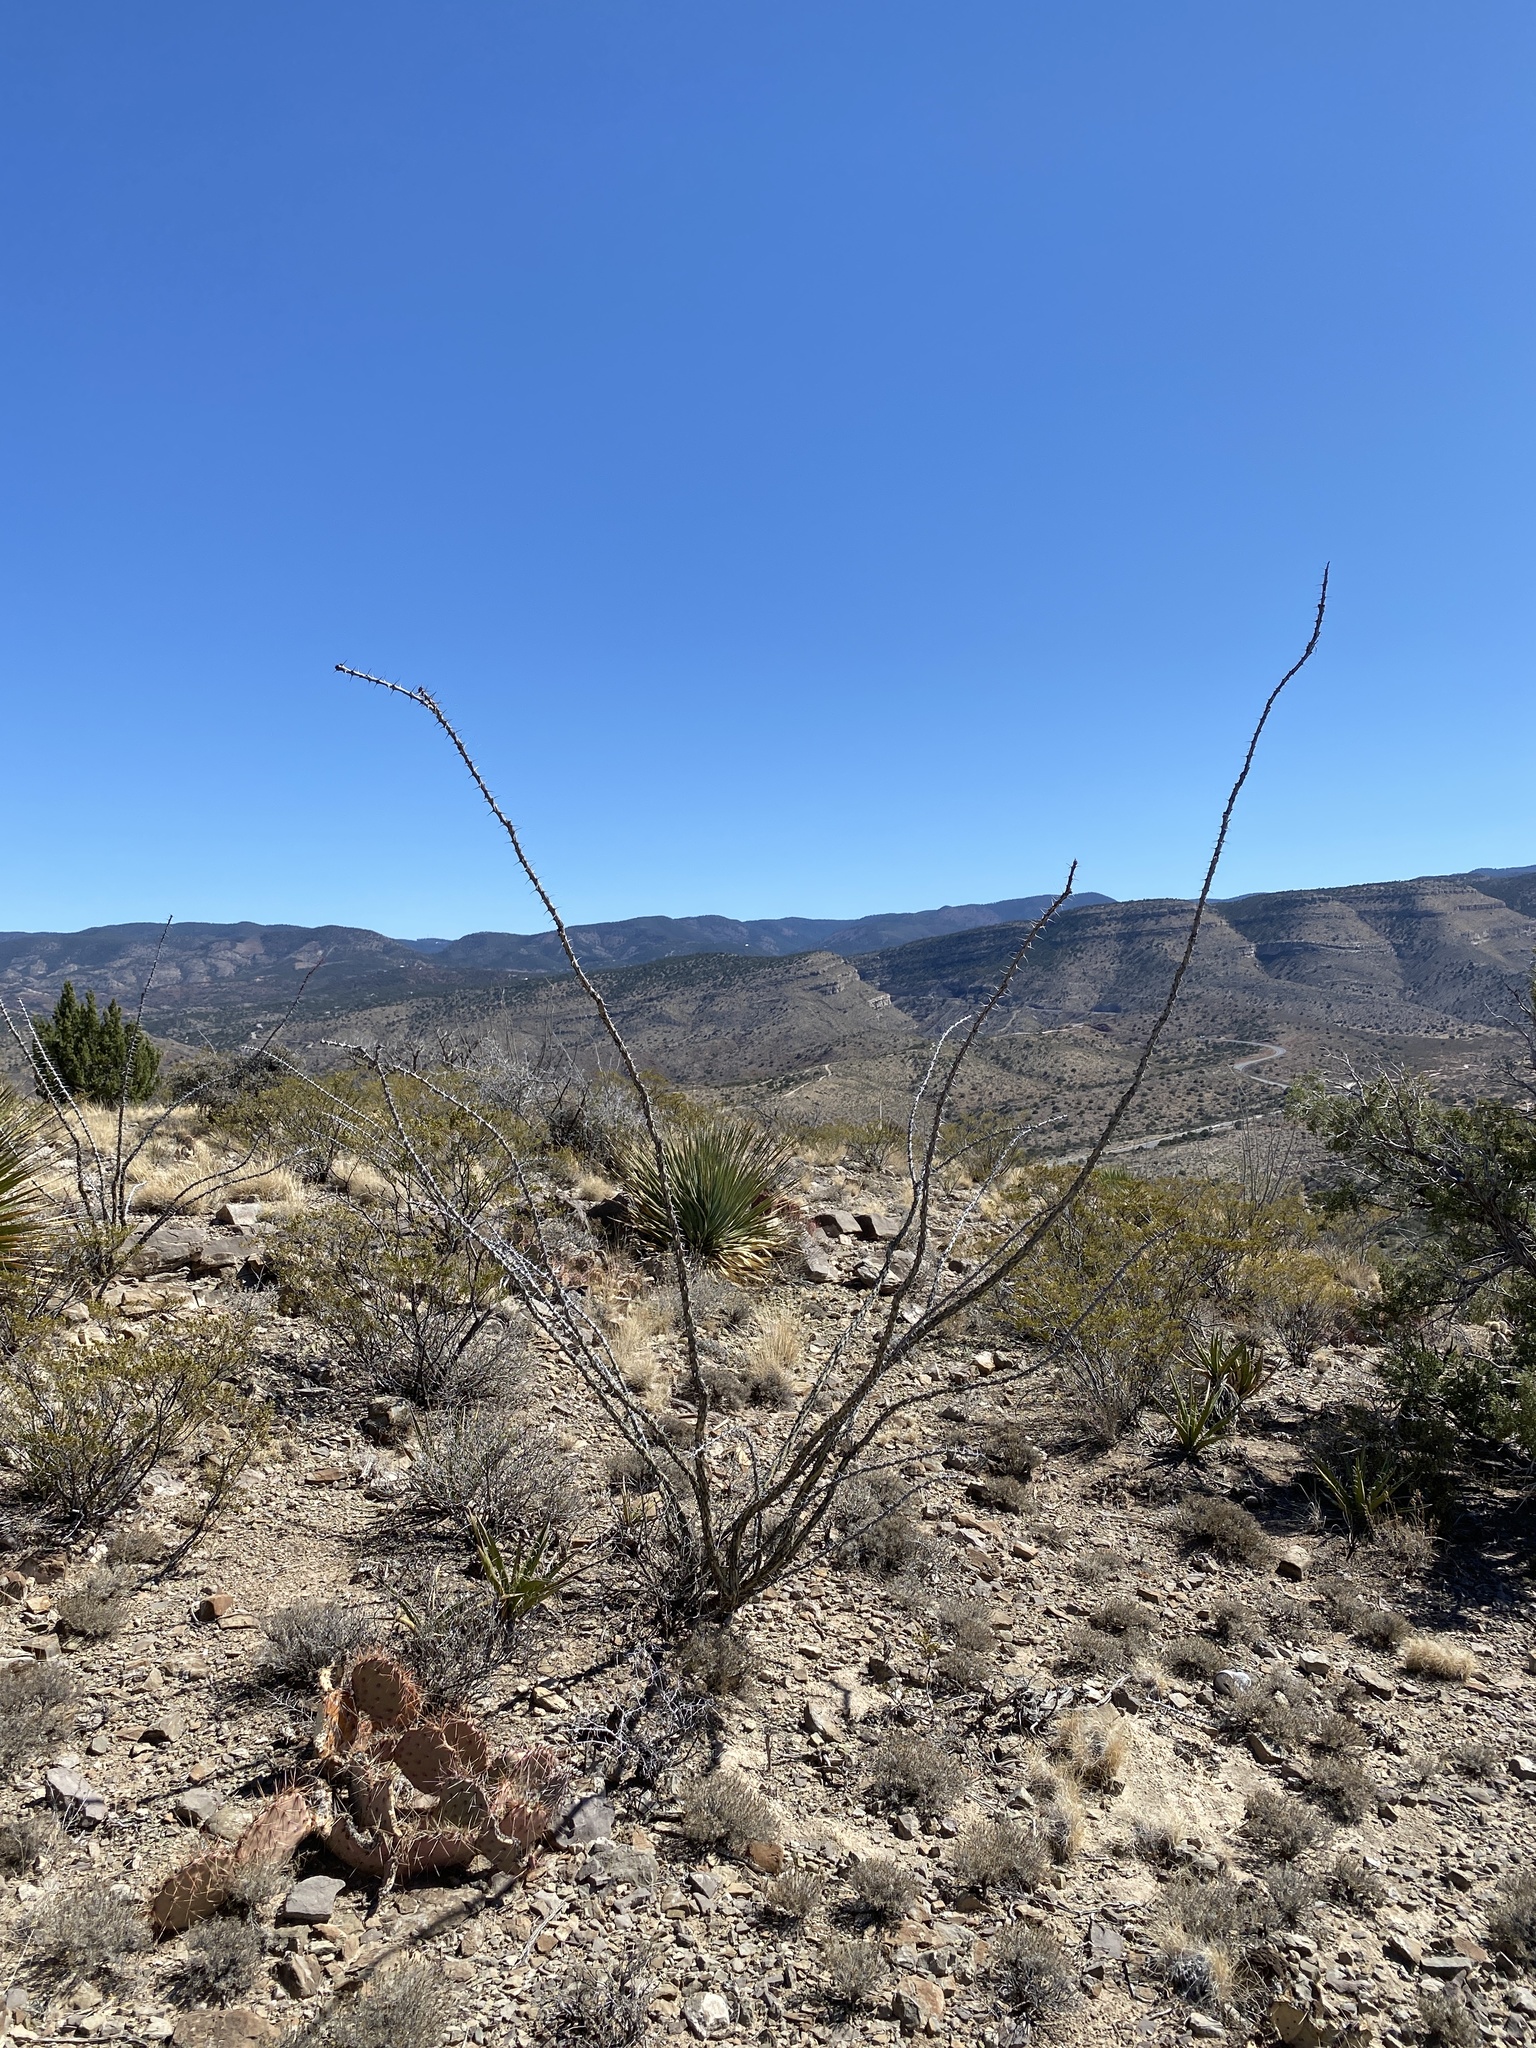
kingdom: Plantae
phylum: Tracheophyta
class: Magnoliopsida
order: Ericales
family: Fouquieriaceae
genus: Fouquieria
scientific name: Fouquieria splendens
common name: Vine-cactus
